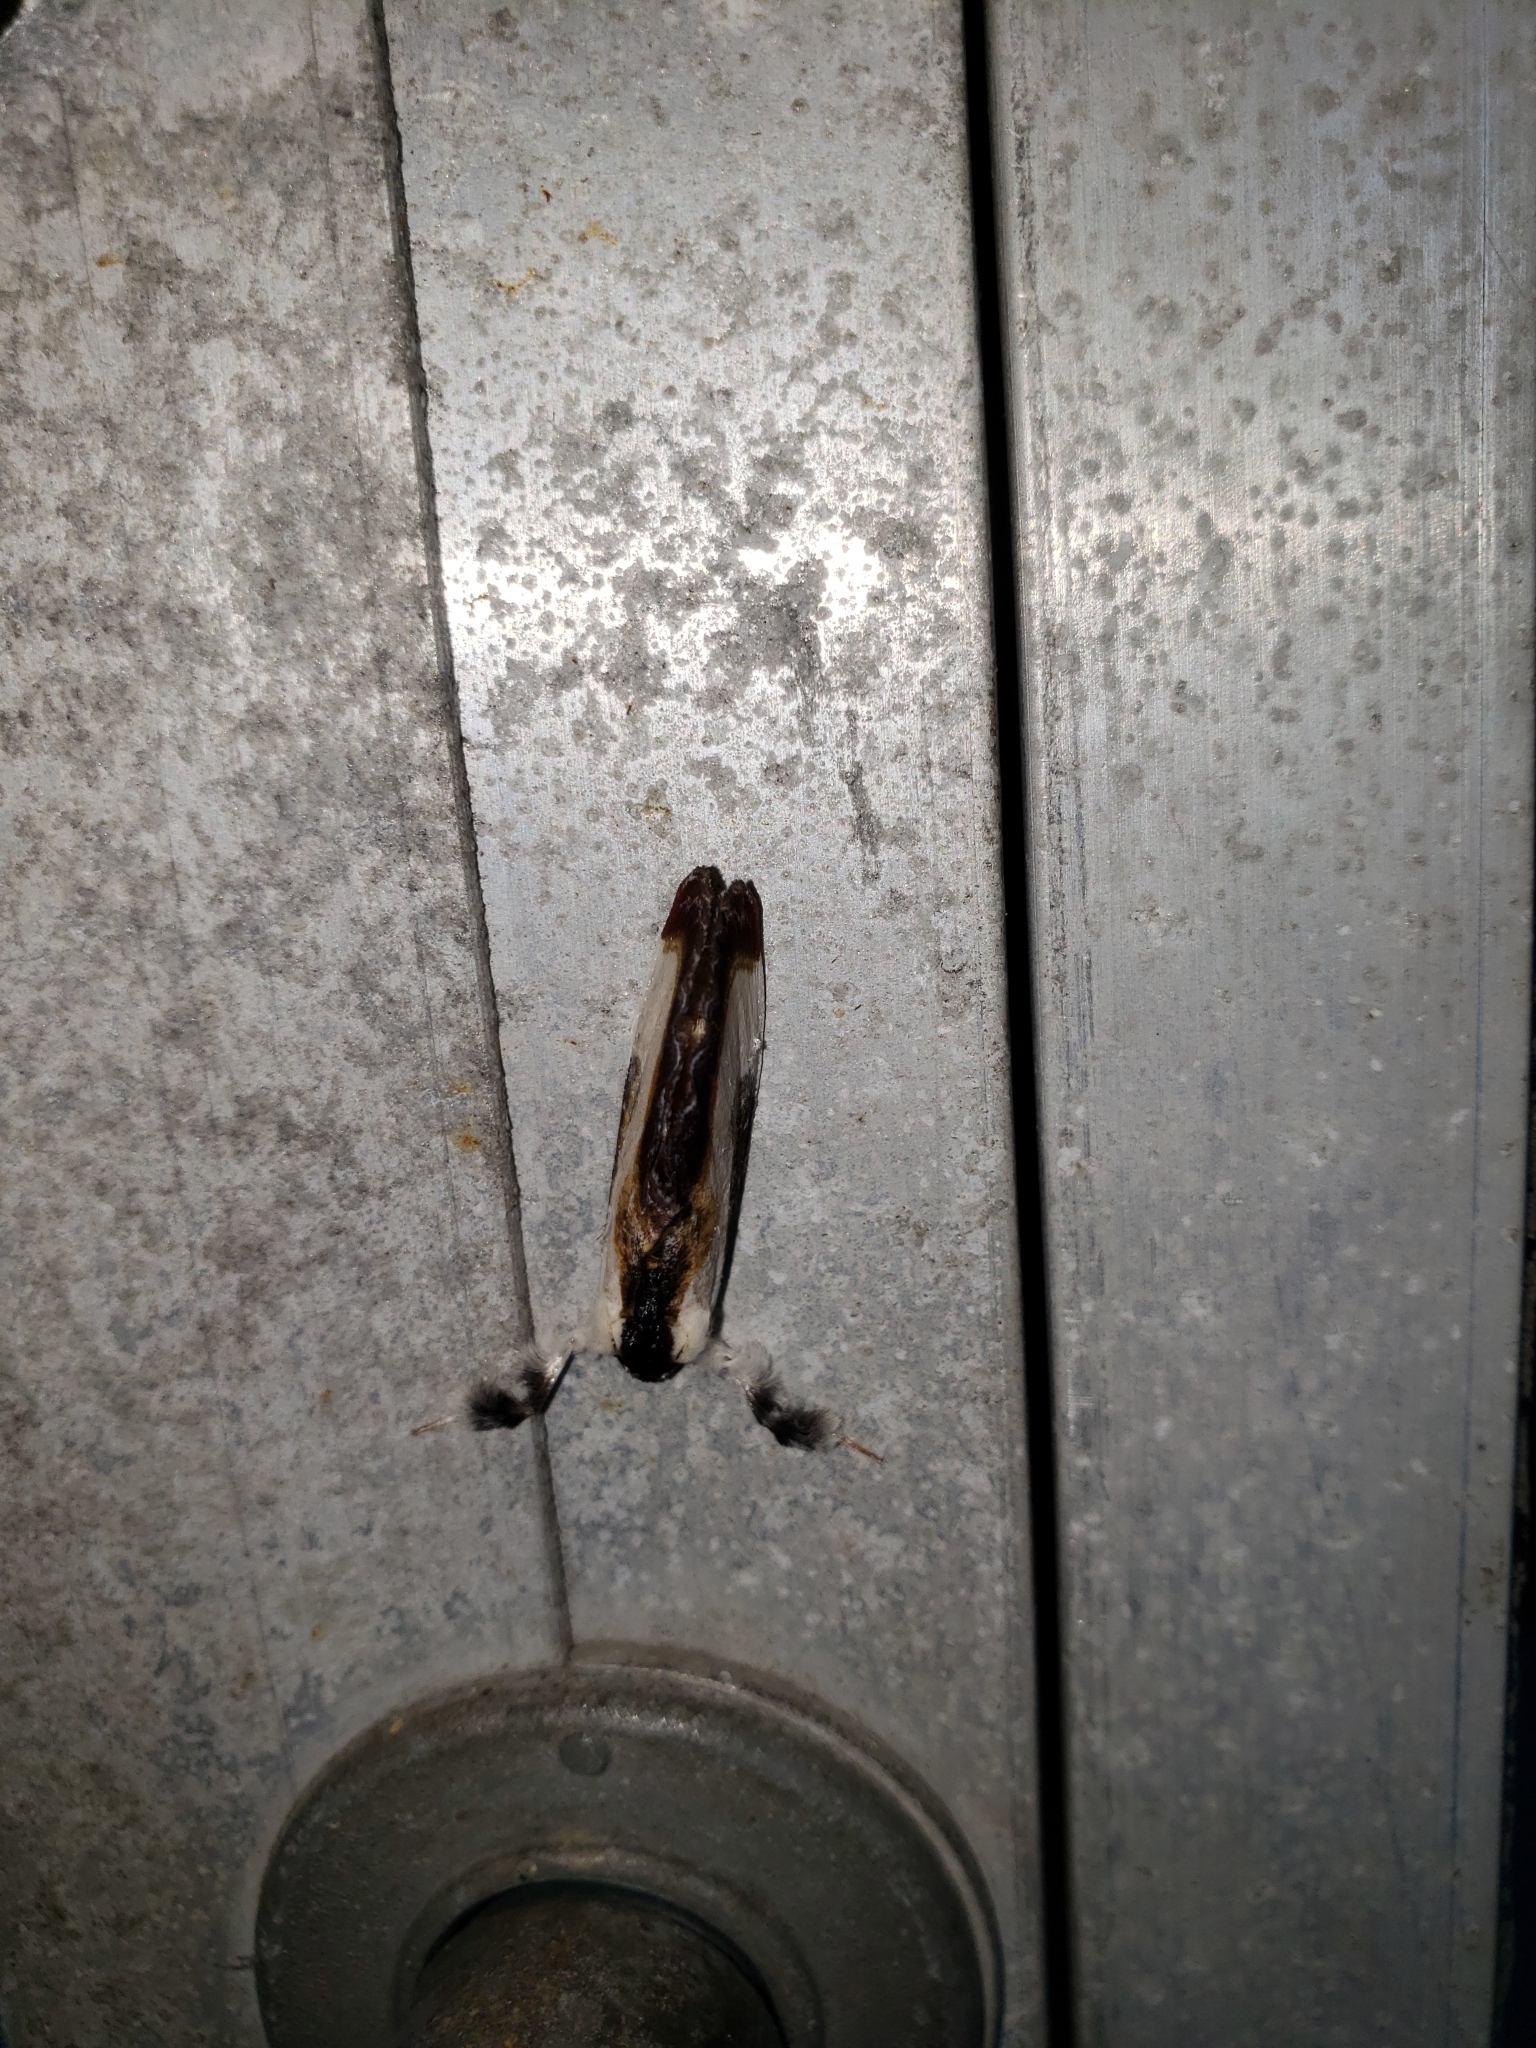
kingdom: Animalia
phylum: Arthropoda
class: Insecta
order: Lepidoptera
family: Noctuidae
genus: Eudryas
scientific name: Eudryas grata
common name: Beautiful wood-nymph
